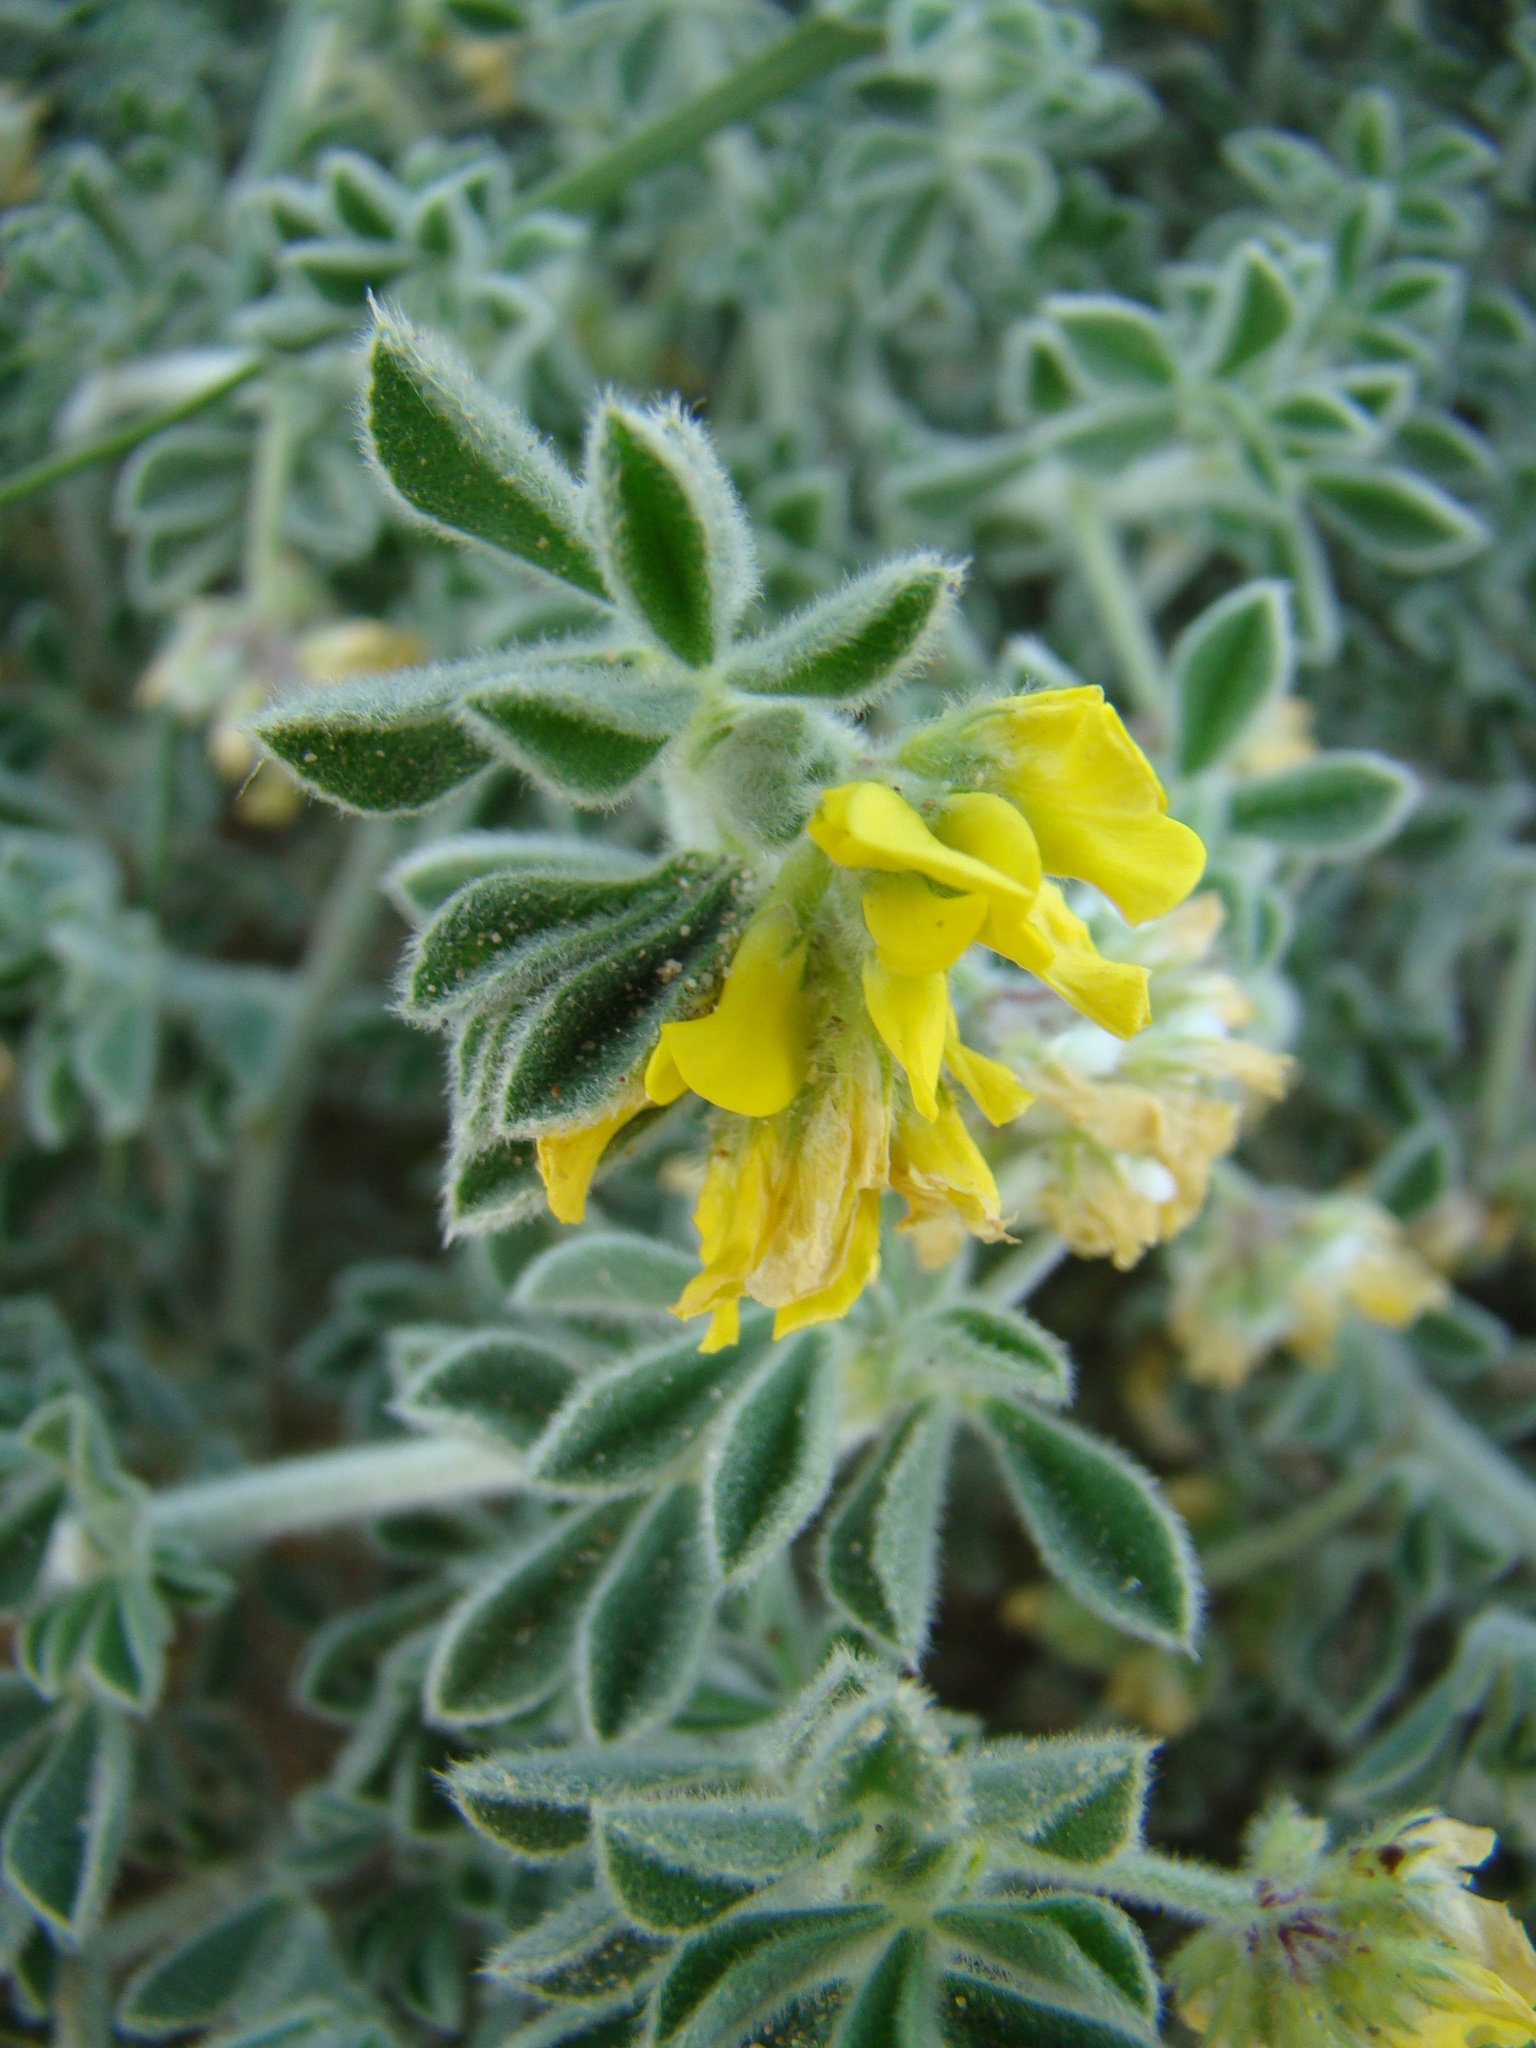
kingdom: Plantae
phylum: Tracheophyta
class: Magnoliopsida
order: Fabales
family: Fabaceae
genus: Medicago
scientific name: Medicago marina
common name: Sea medick
